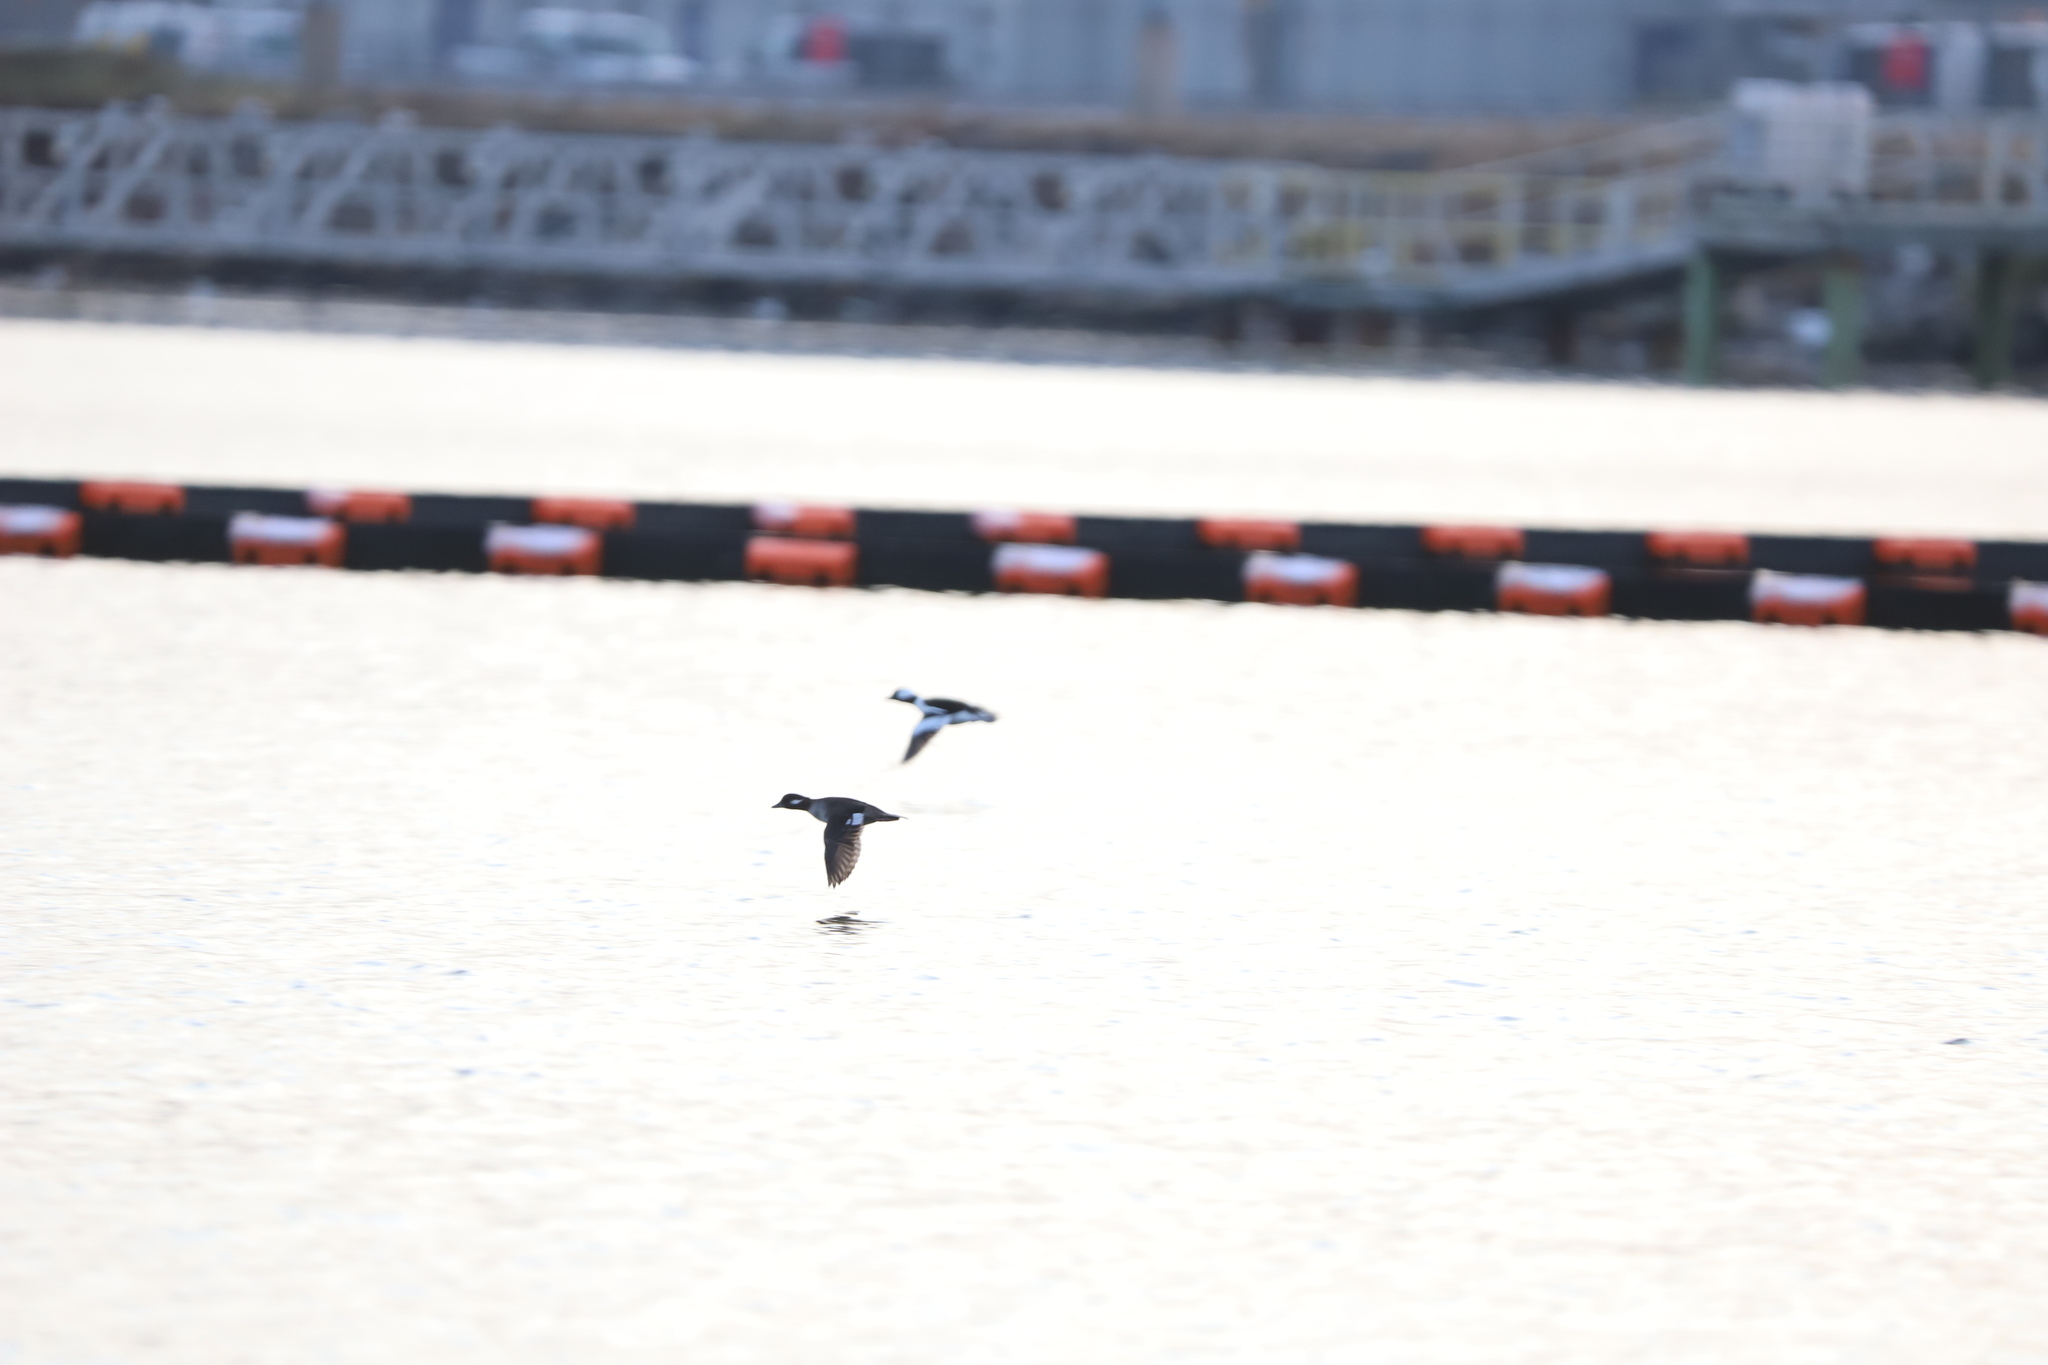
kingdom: Animalia
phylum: Chordata
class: Aves
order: Anseriformes
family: Anatidae
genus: Bucephala
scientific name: Bucephala albeola
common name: Bufflehead
